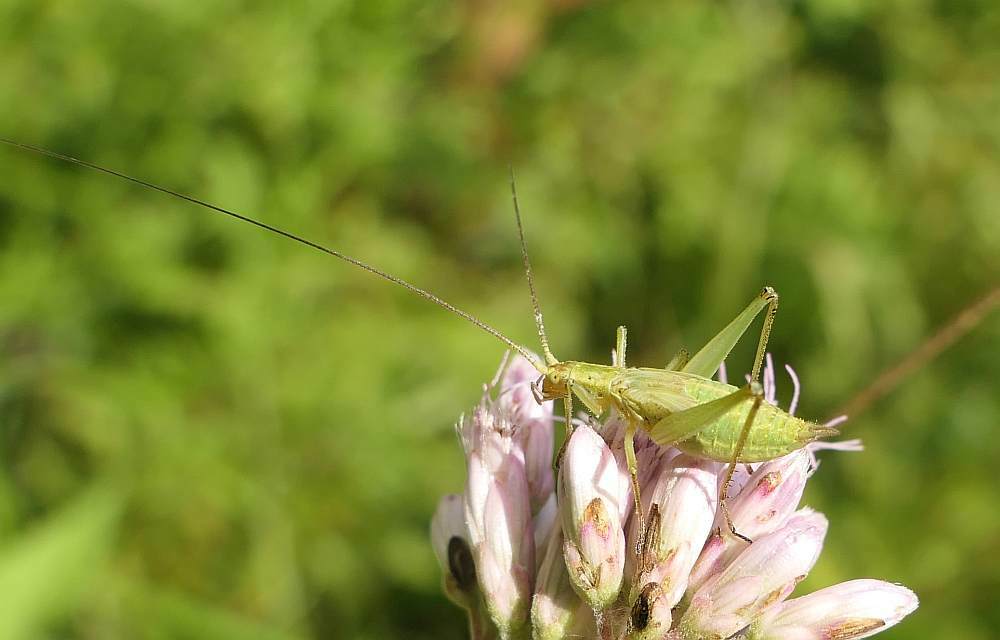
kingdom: Animalia
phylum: Arthropoda
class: Insecta
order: Orthoptera
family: Gryllidae
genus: Oecanthus
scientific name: Oecanthus nigricornis
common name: Black-horned tree cricket
